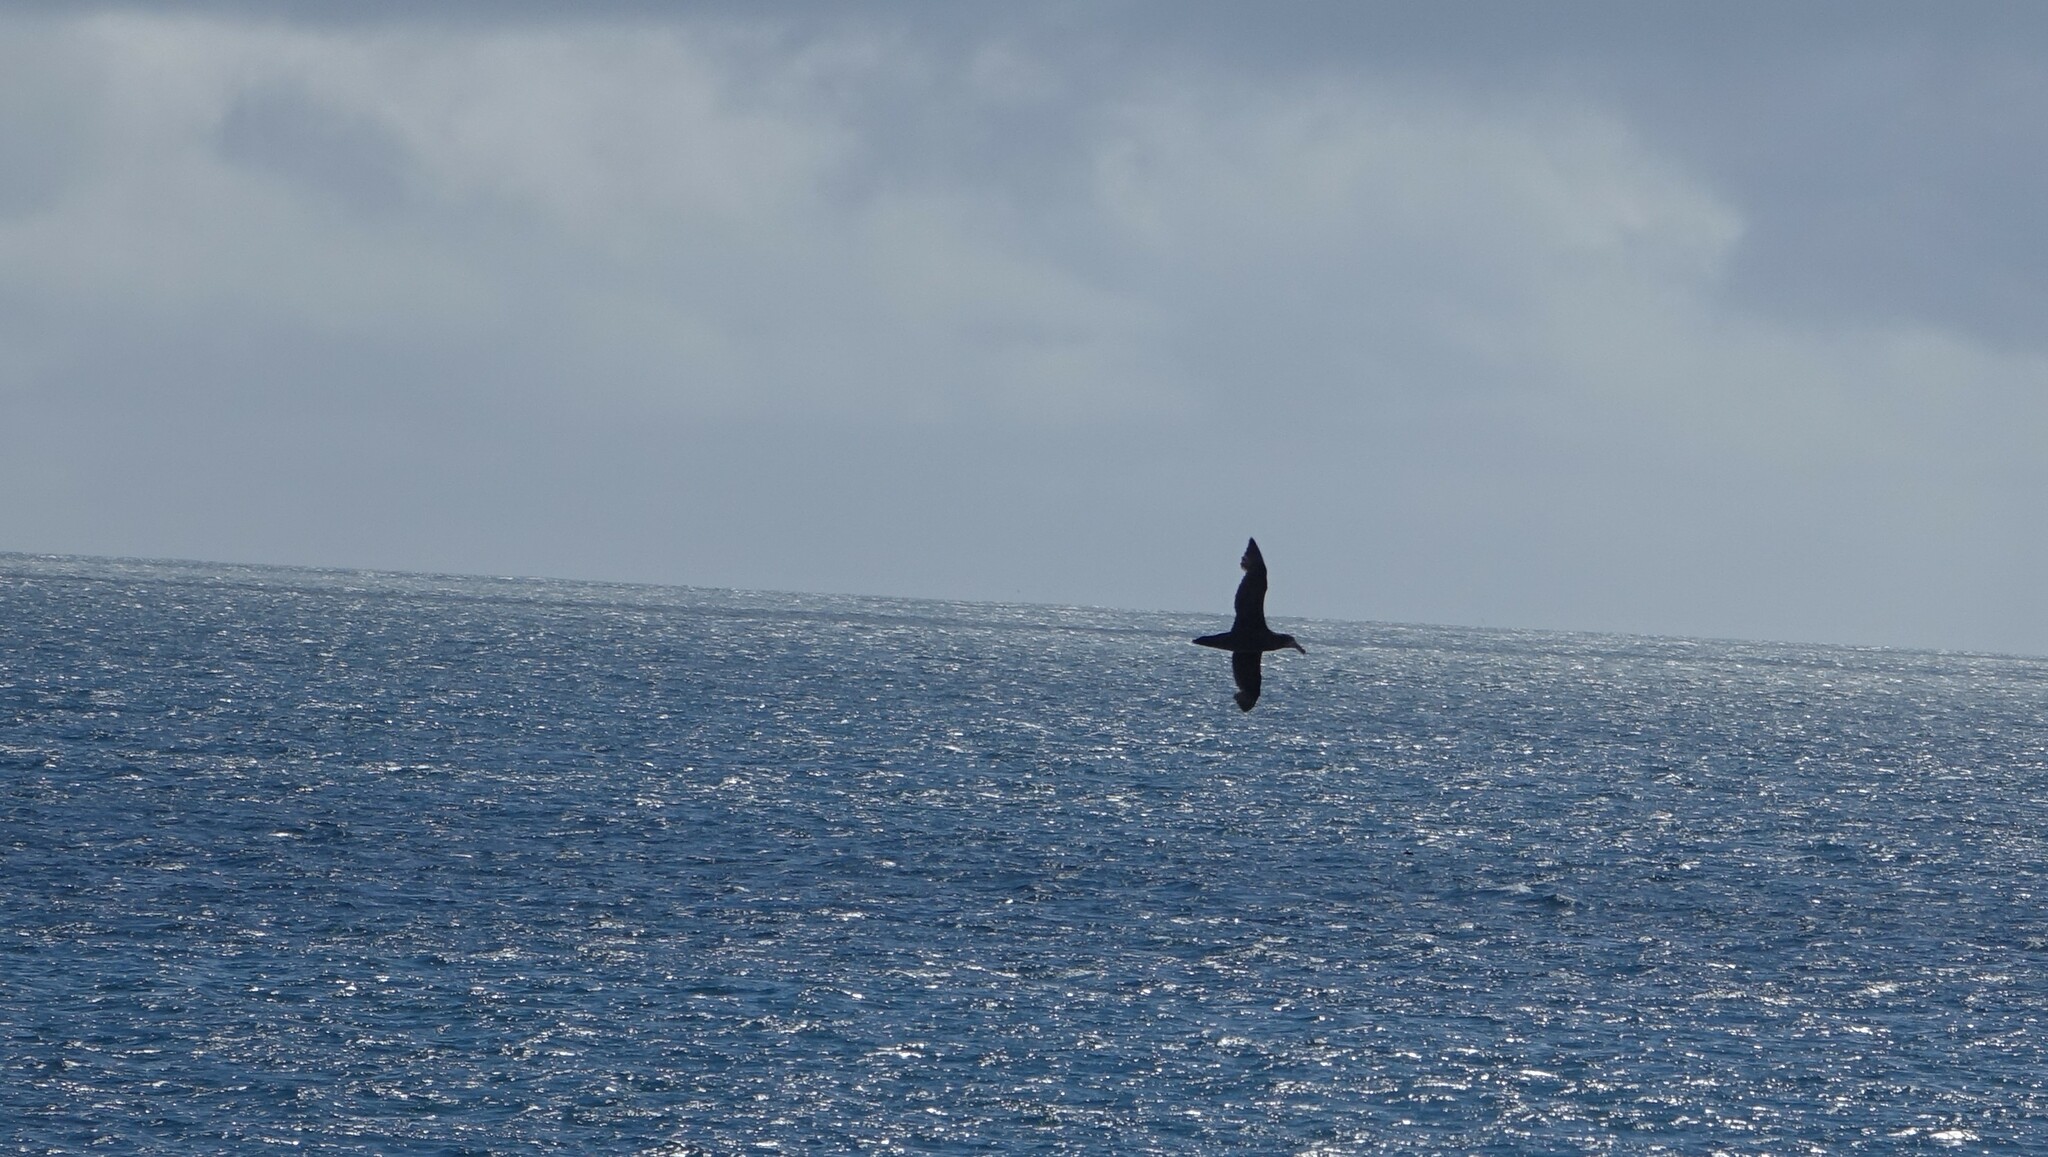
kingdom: Animalia
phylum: Chordata
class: Aves
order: Procellariiformes
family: Procellariidae
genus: Macronectes
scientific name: Macronectes halli
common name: Northern giant petrel
